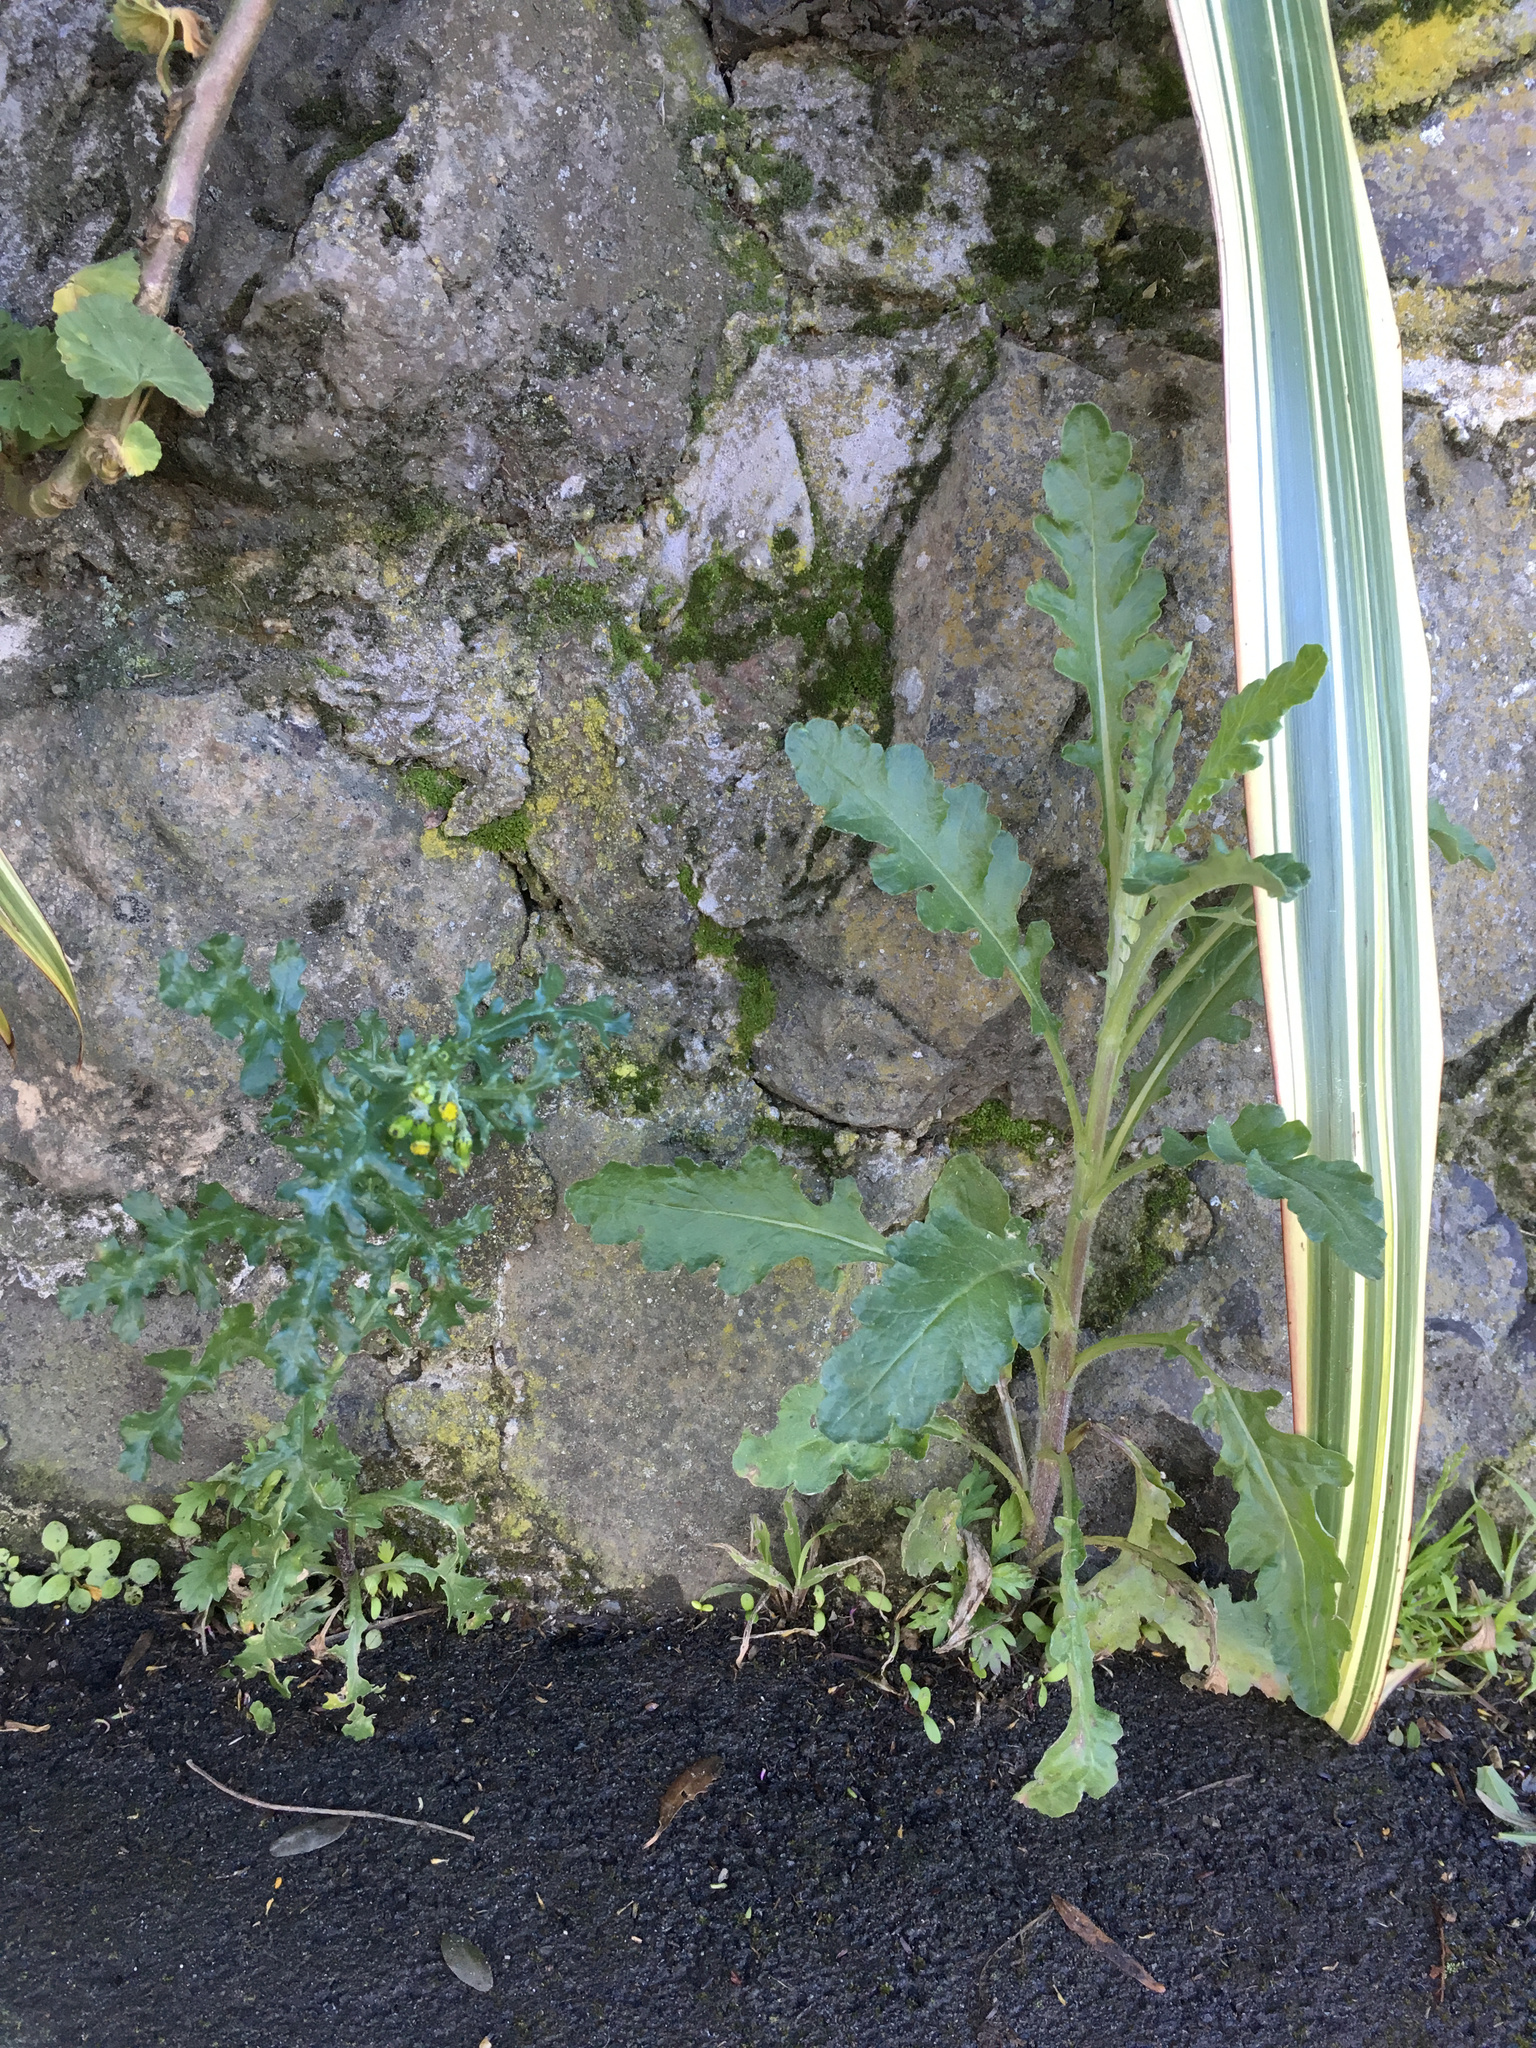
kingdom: Plantae
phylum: Tracheophyta
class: Magnoliopsida
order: Asterales
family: Asteraceae
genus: Senecio
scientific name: Senecio vulgaris
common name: Old-man-in-the-spring
